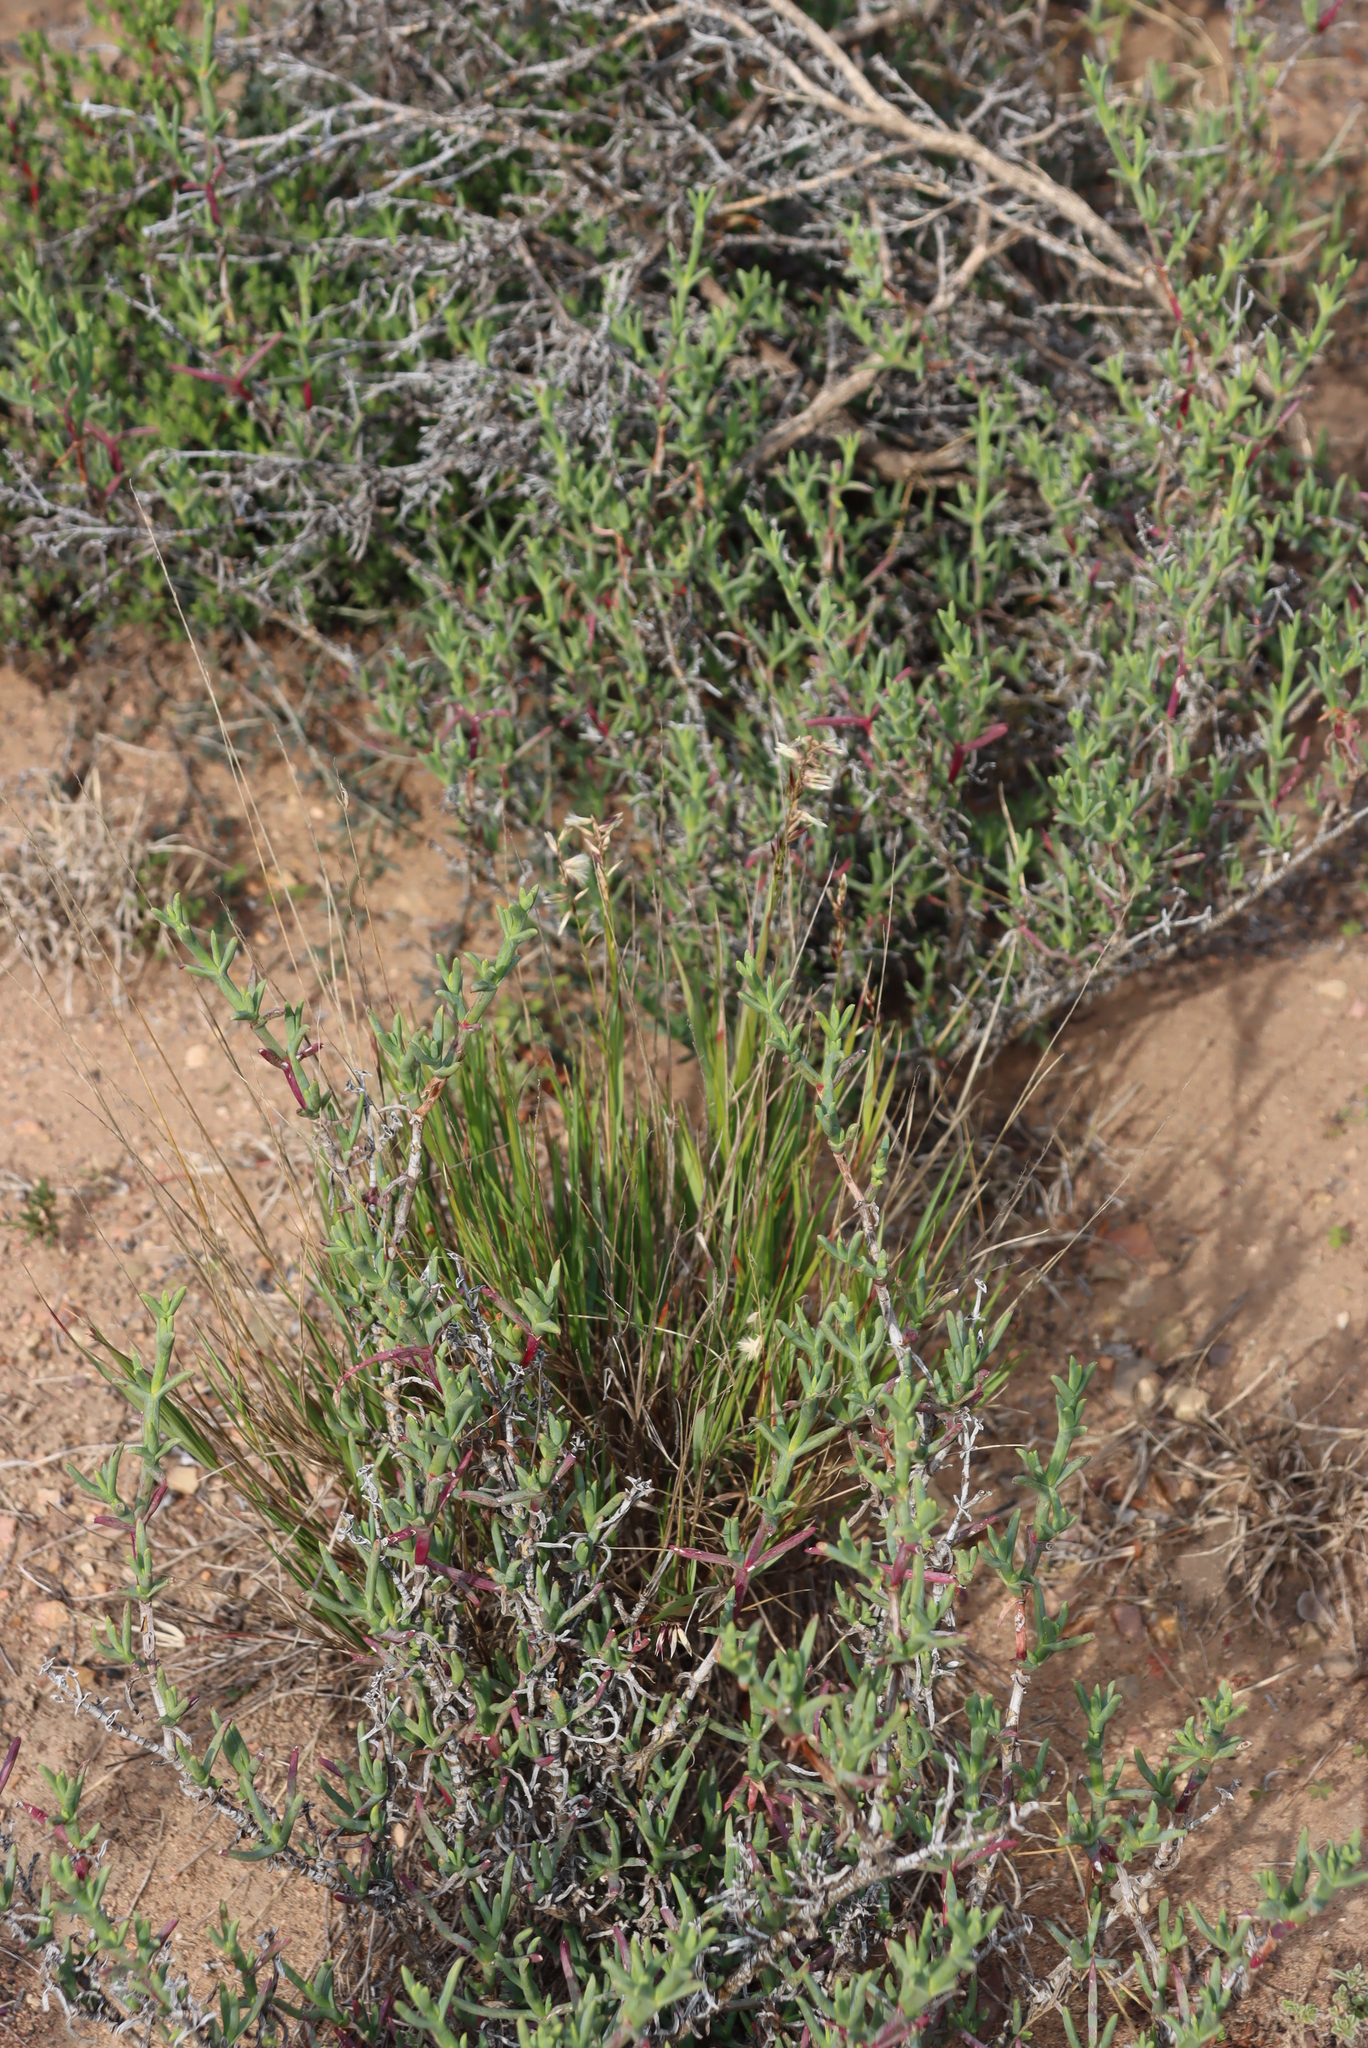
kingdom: Plantae
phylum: Tracheophyta
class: Liliopsida
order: Poales
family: Poaceae
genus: Melica
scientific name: Melica racemosa
